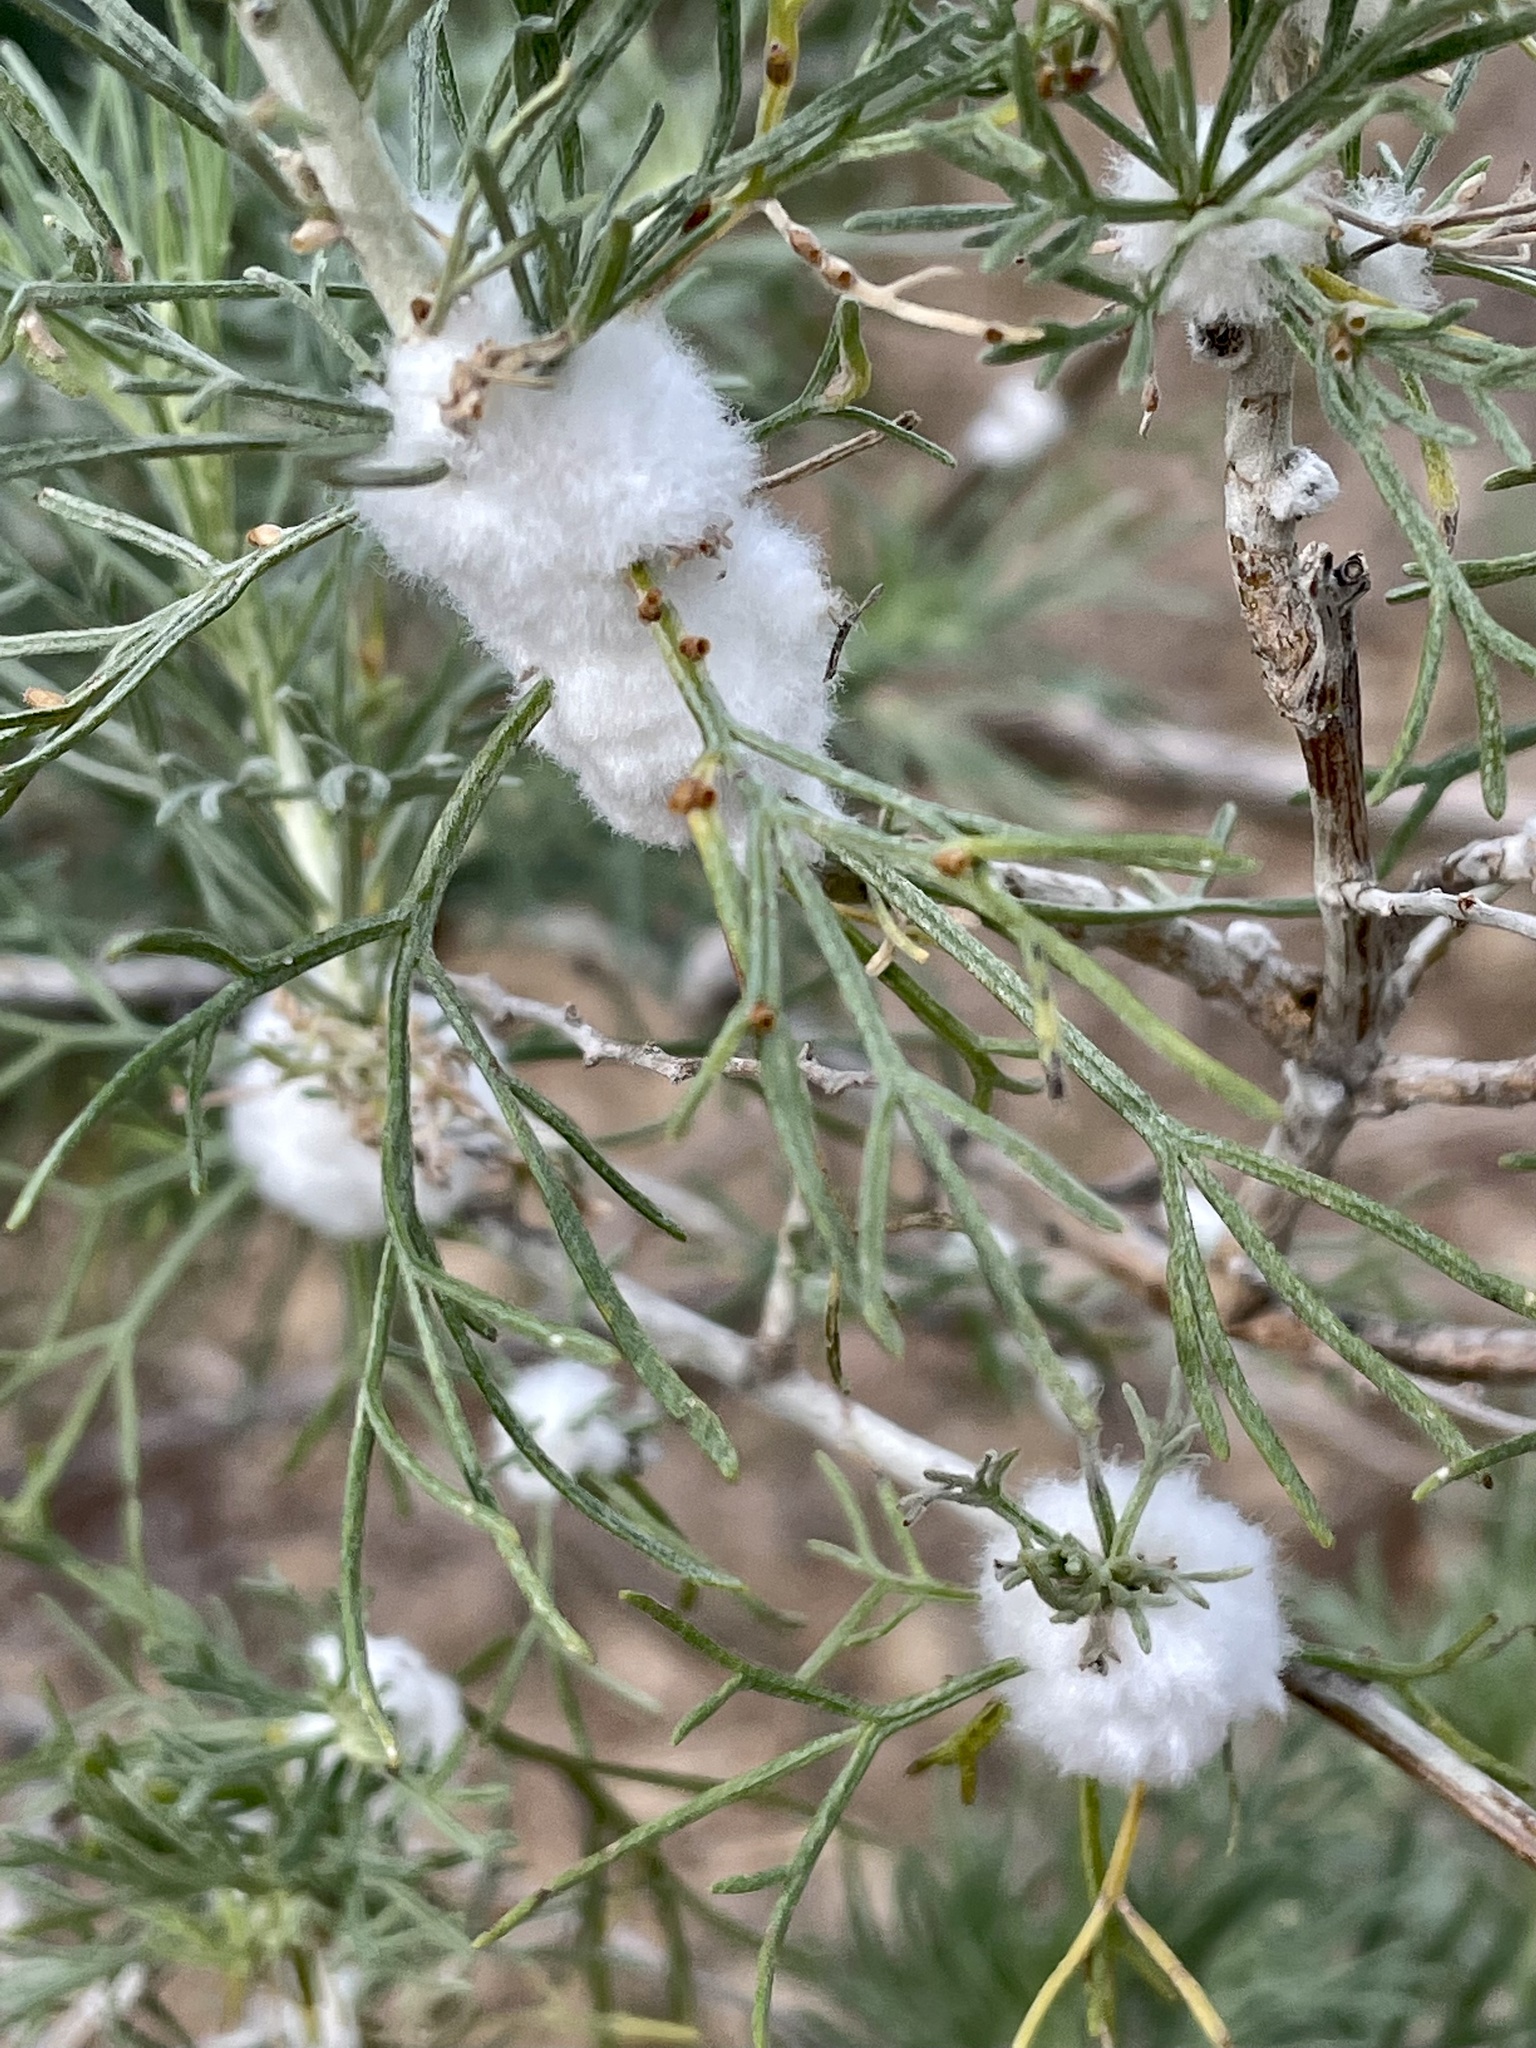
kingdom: Animalia
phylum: Arthropoda
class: Insecta
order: Diptera
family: Cecidomyiidae
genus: Rhopalomyia
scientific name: Rhopalomyia floccosa
